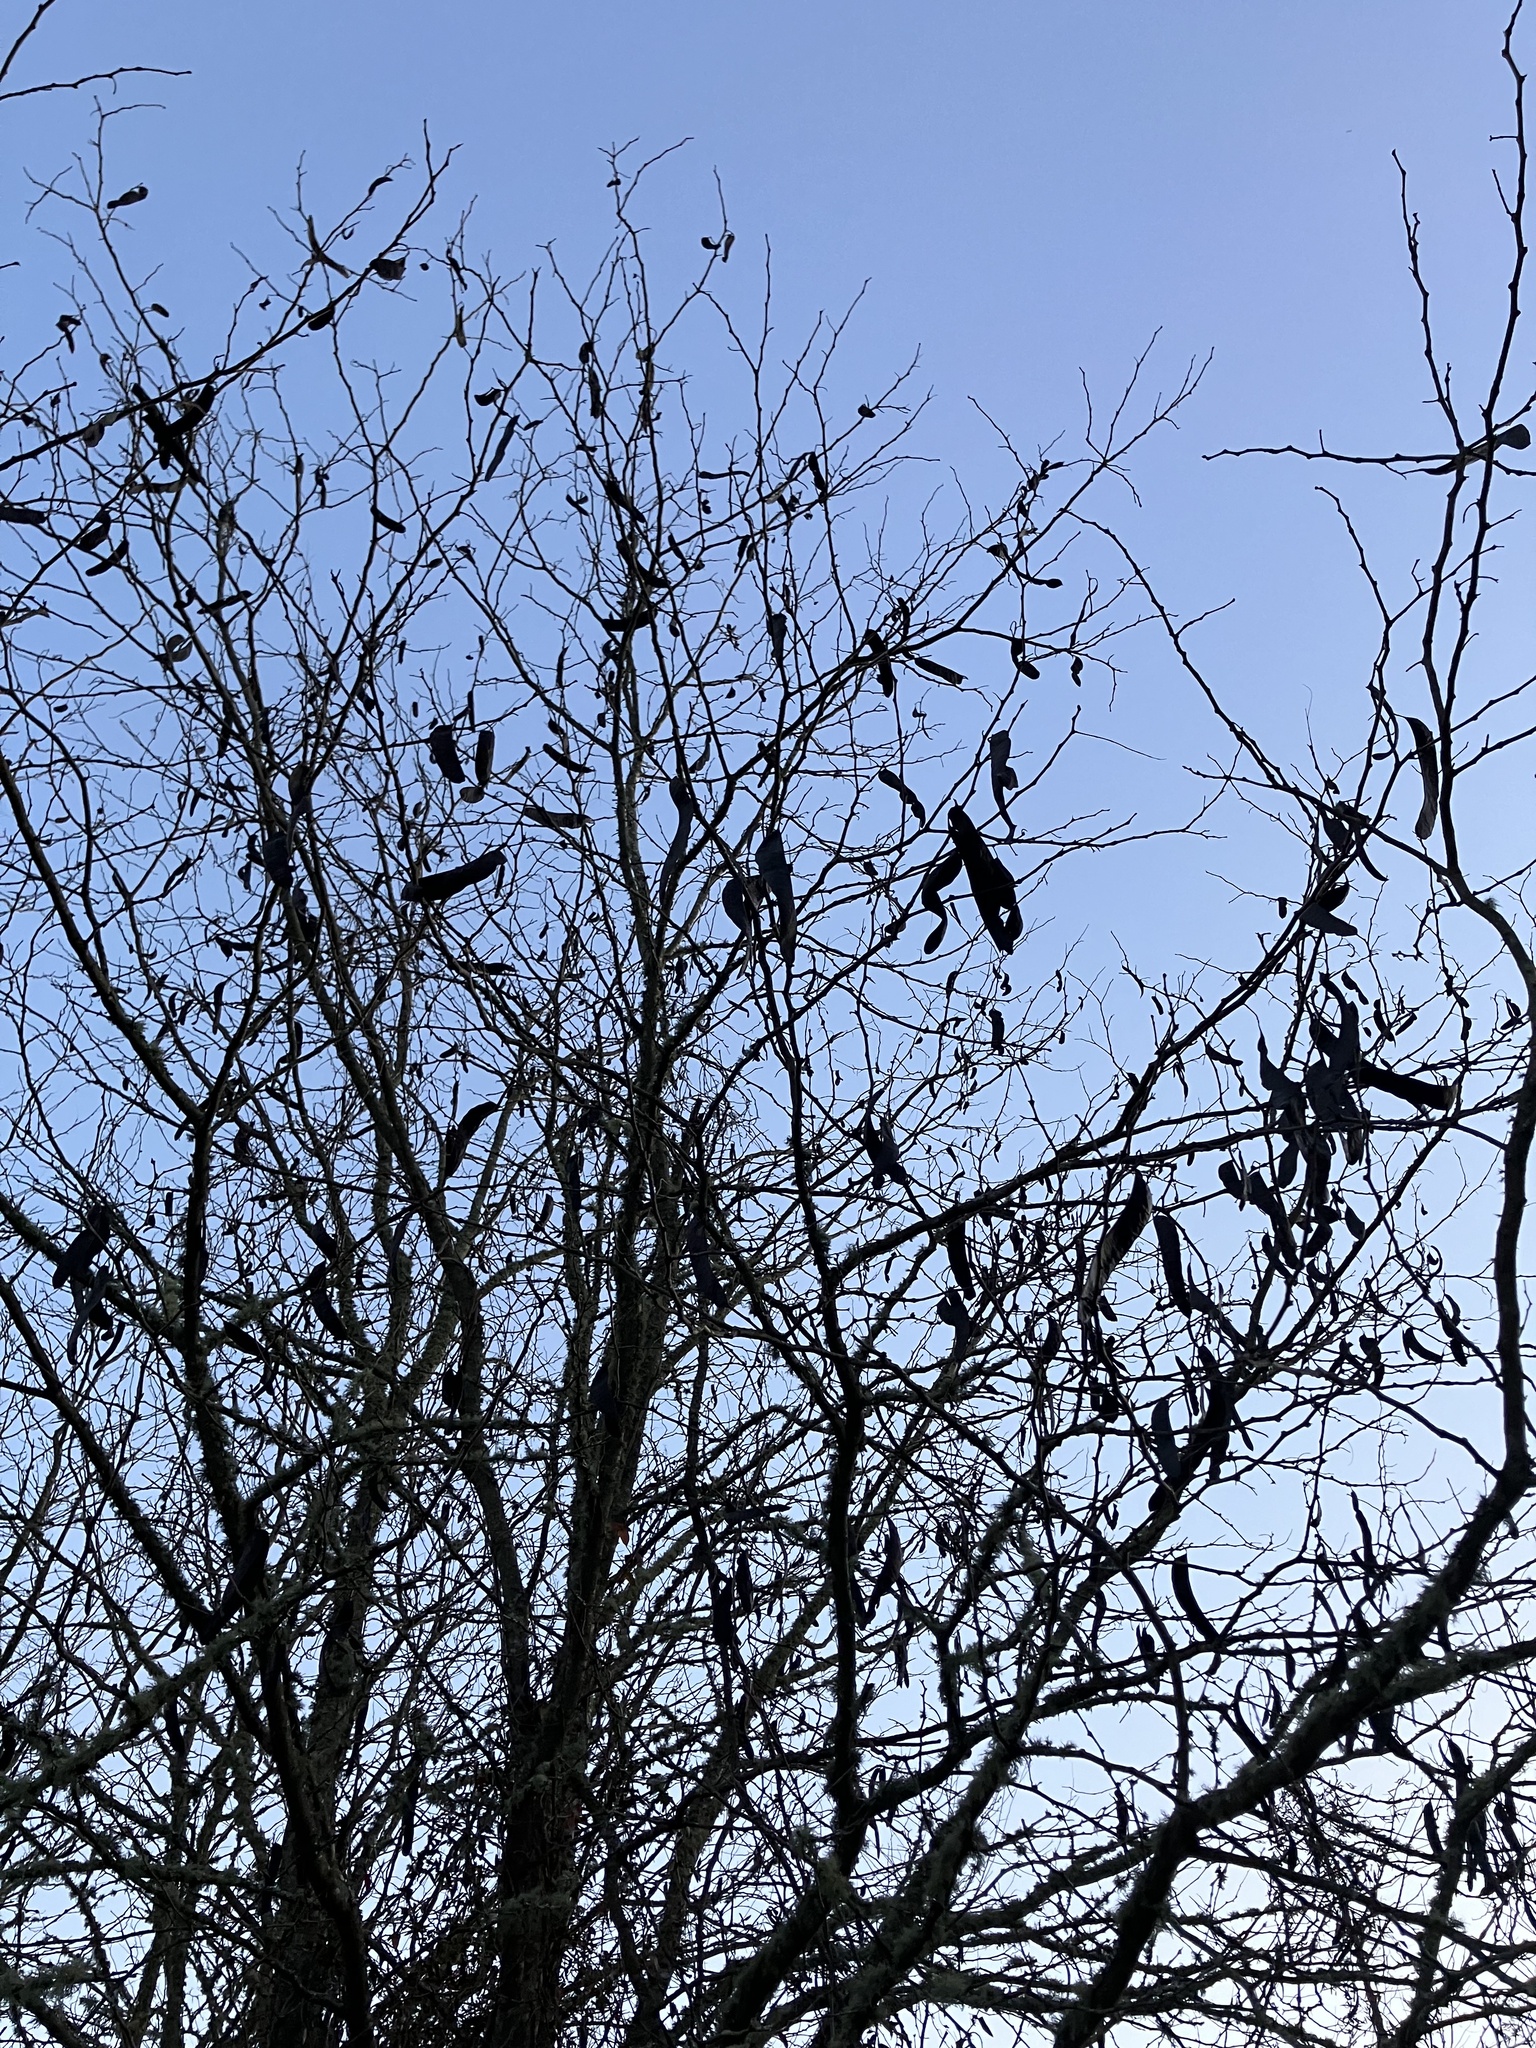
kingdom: Plantae
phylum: Tracheophyta
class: Magnoliopsida
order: Fabales
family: Fabaceae
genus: Gleditsia
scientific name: Gleditsia triacanthos
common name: Common honeylocust
